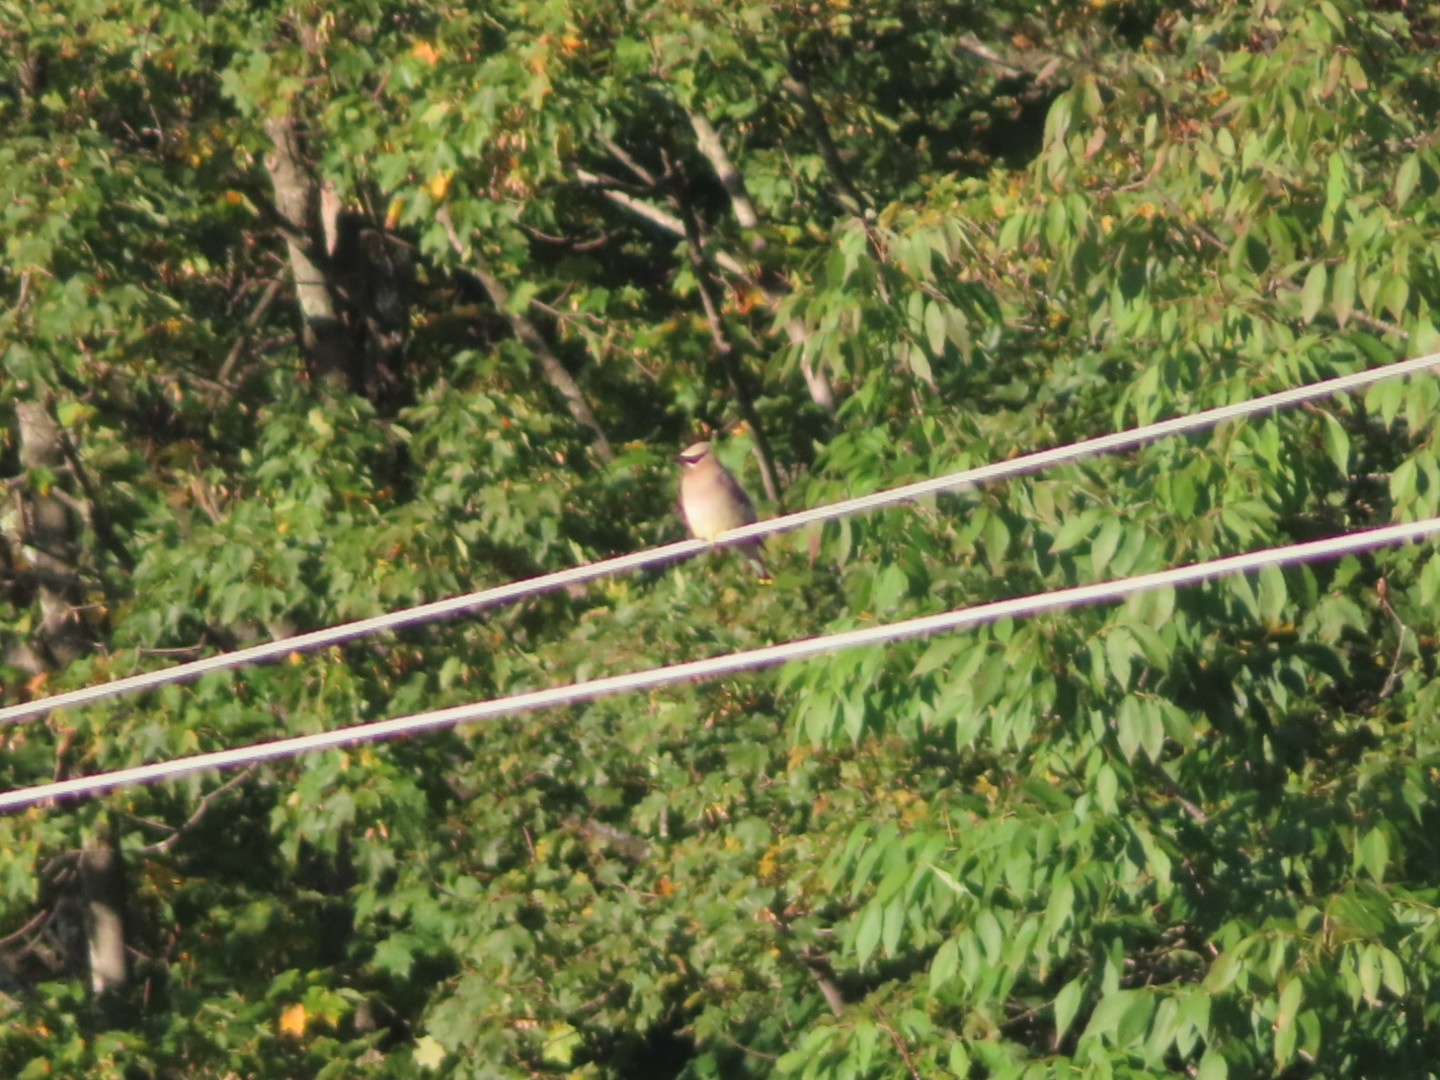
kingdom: Animalia
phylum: Chordata
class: Aves
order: Passeriformes
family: Bombycillidae
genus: Bombycilla
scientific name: Bombycilla cedrorum
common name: Cedar waxwing
